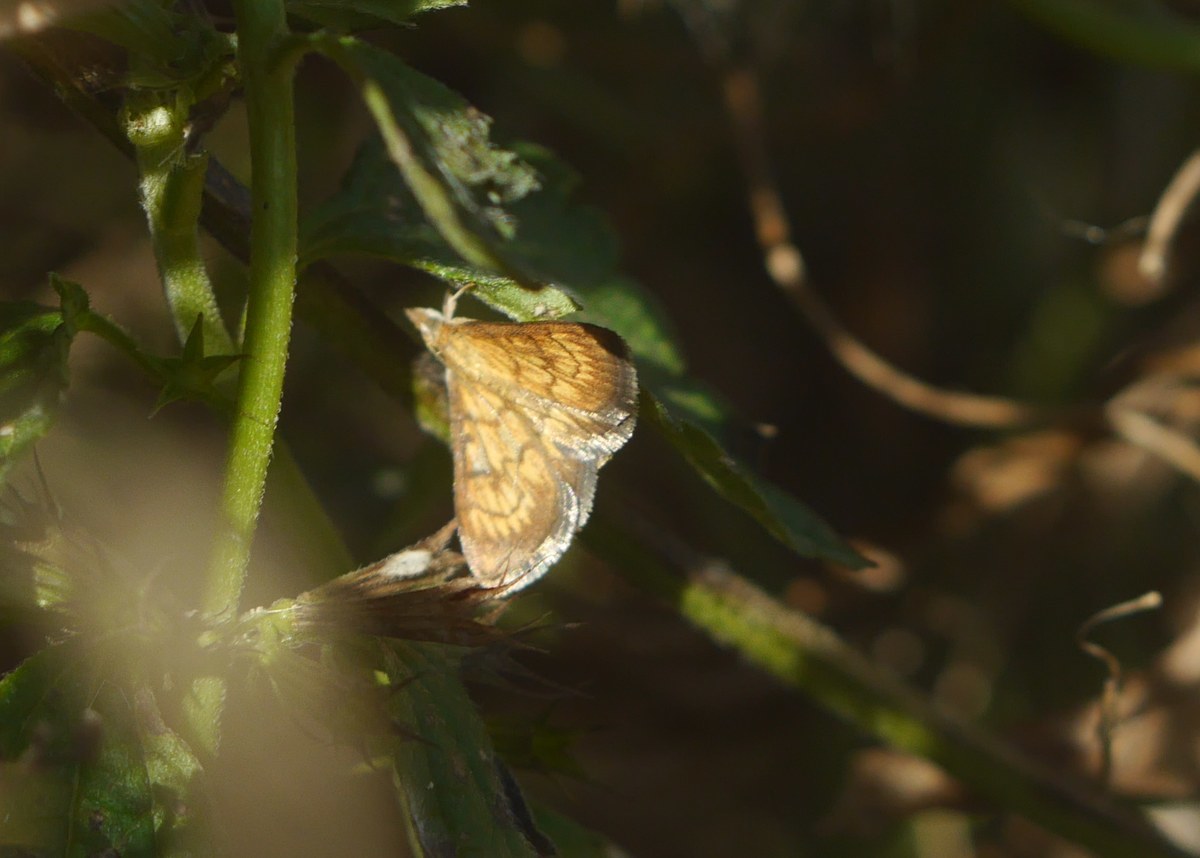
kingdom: Animalia
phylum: Arthropoda
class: Insecta
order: Lepidoptera
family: Crambidae
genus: Ecpyrrhorrhoe
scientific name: Ecpyrrhorrhoe rubiginalis
